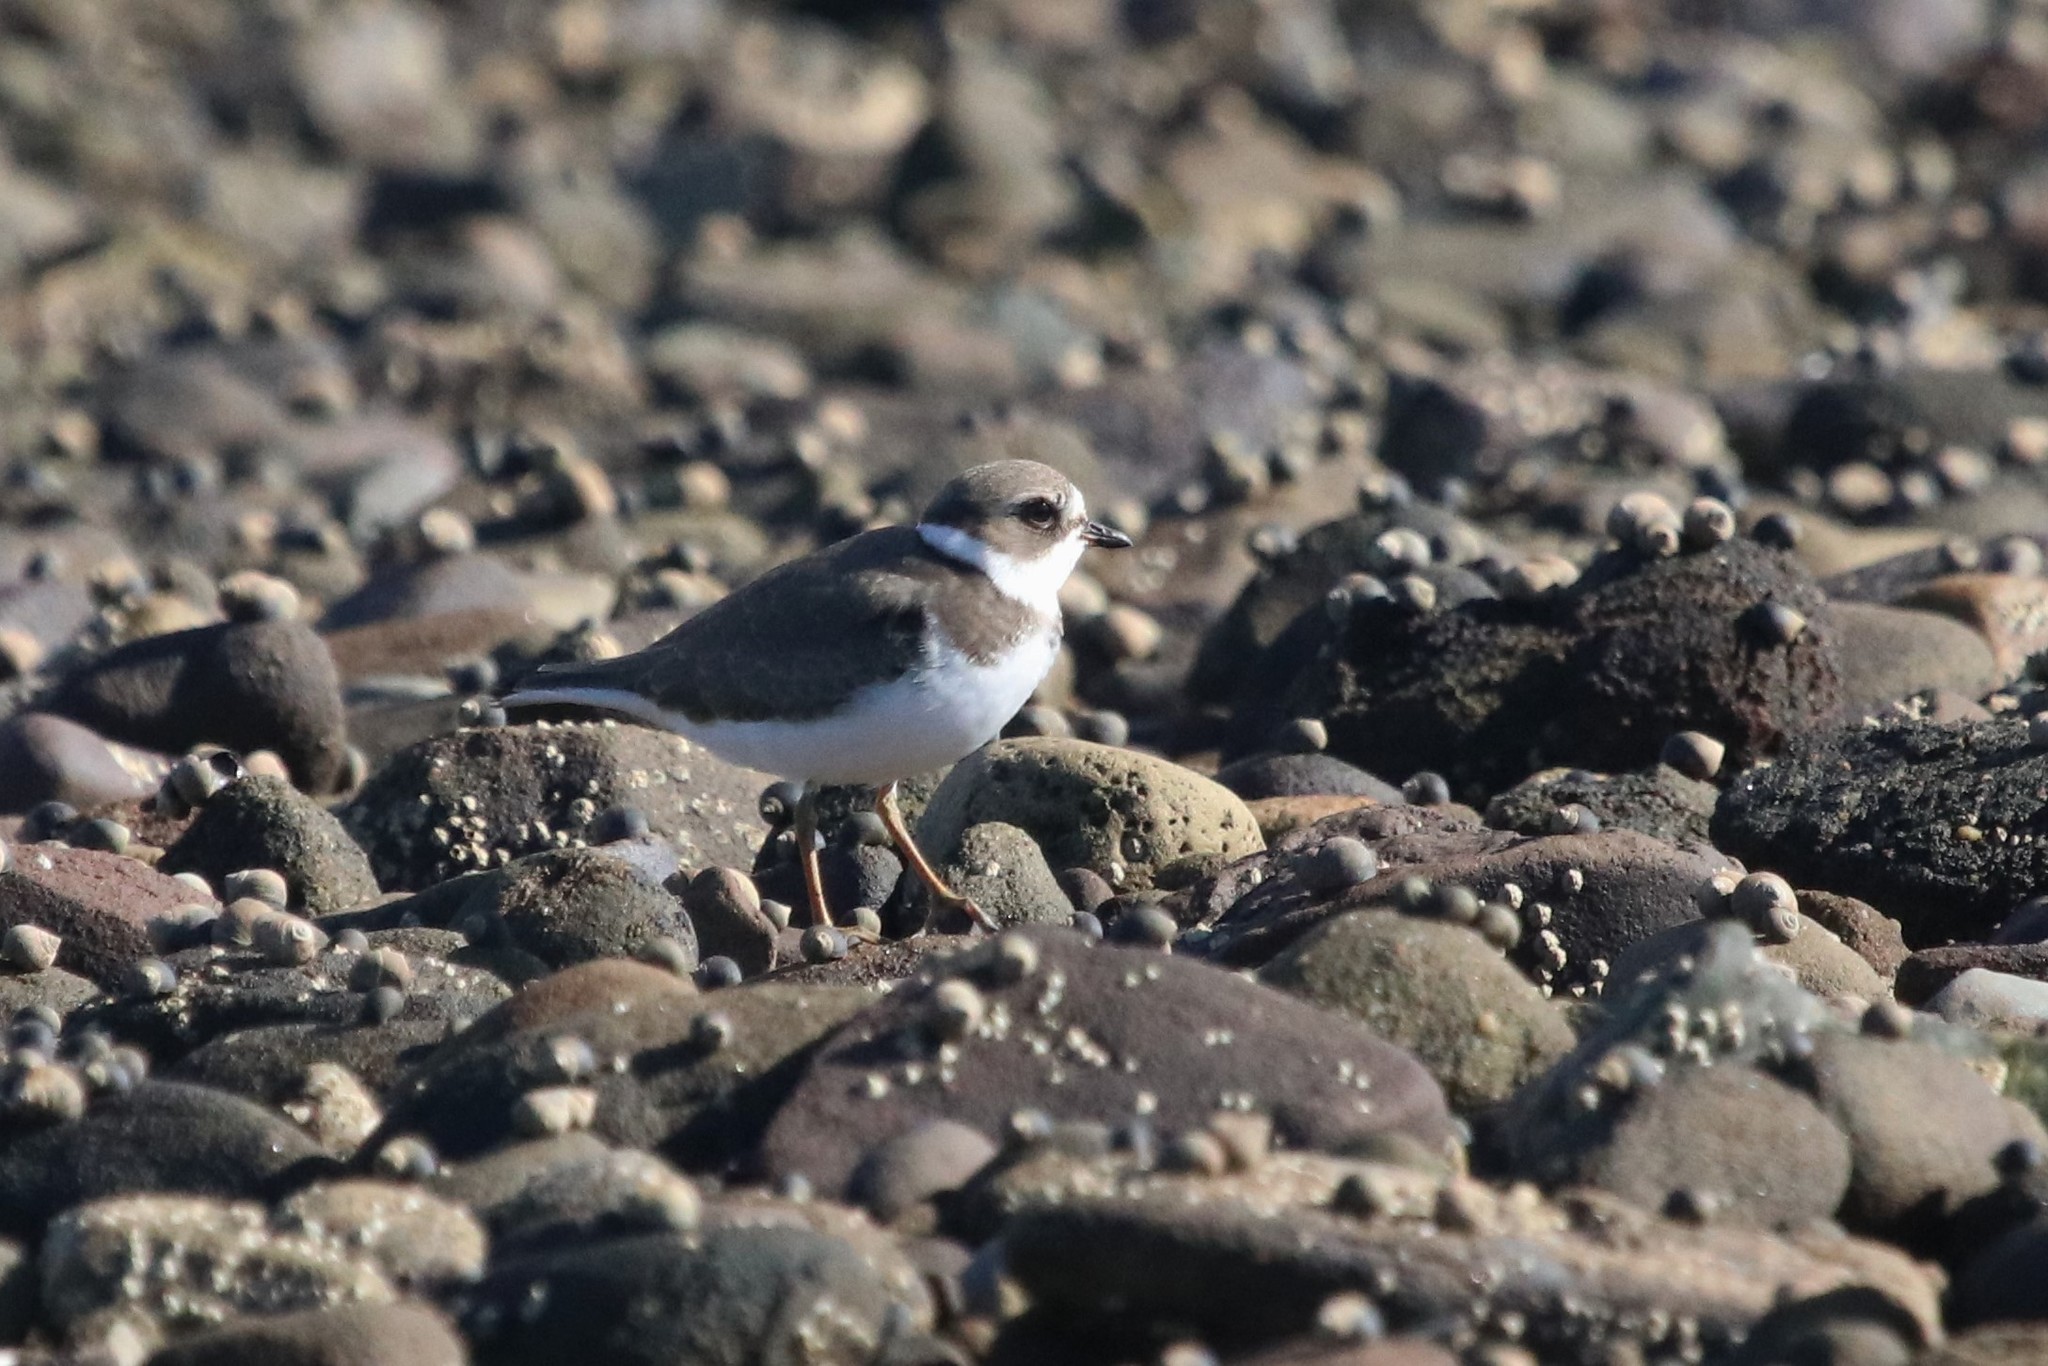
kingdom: Animalia
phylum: Chordata
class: Aves
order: Charadriiformes
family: Charadriidae
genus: Charadrius
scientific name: Charadrius semipalmatus
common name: Semipalmated plover
